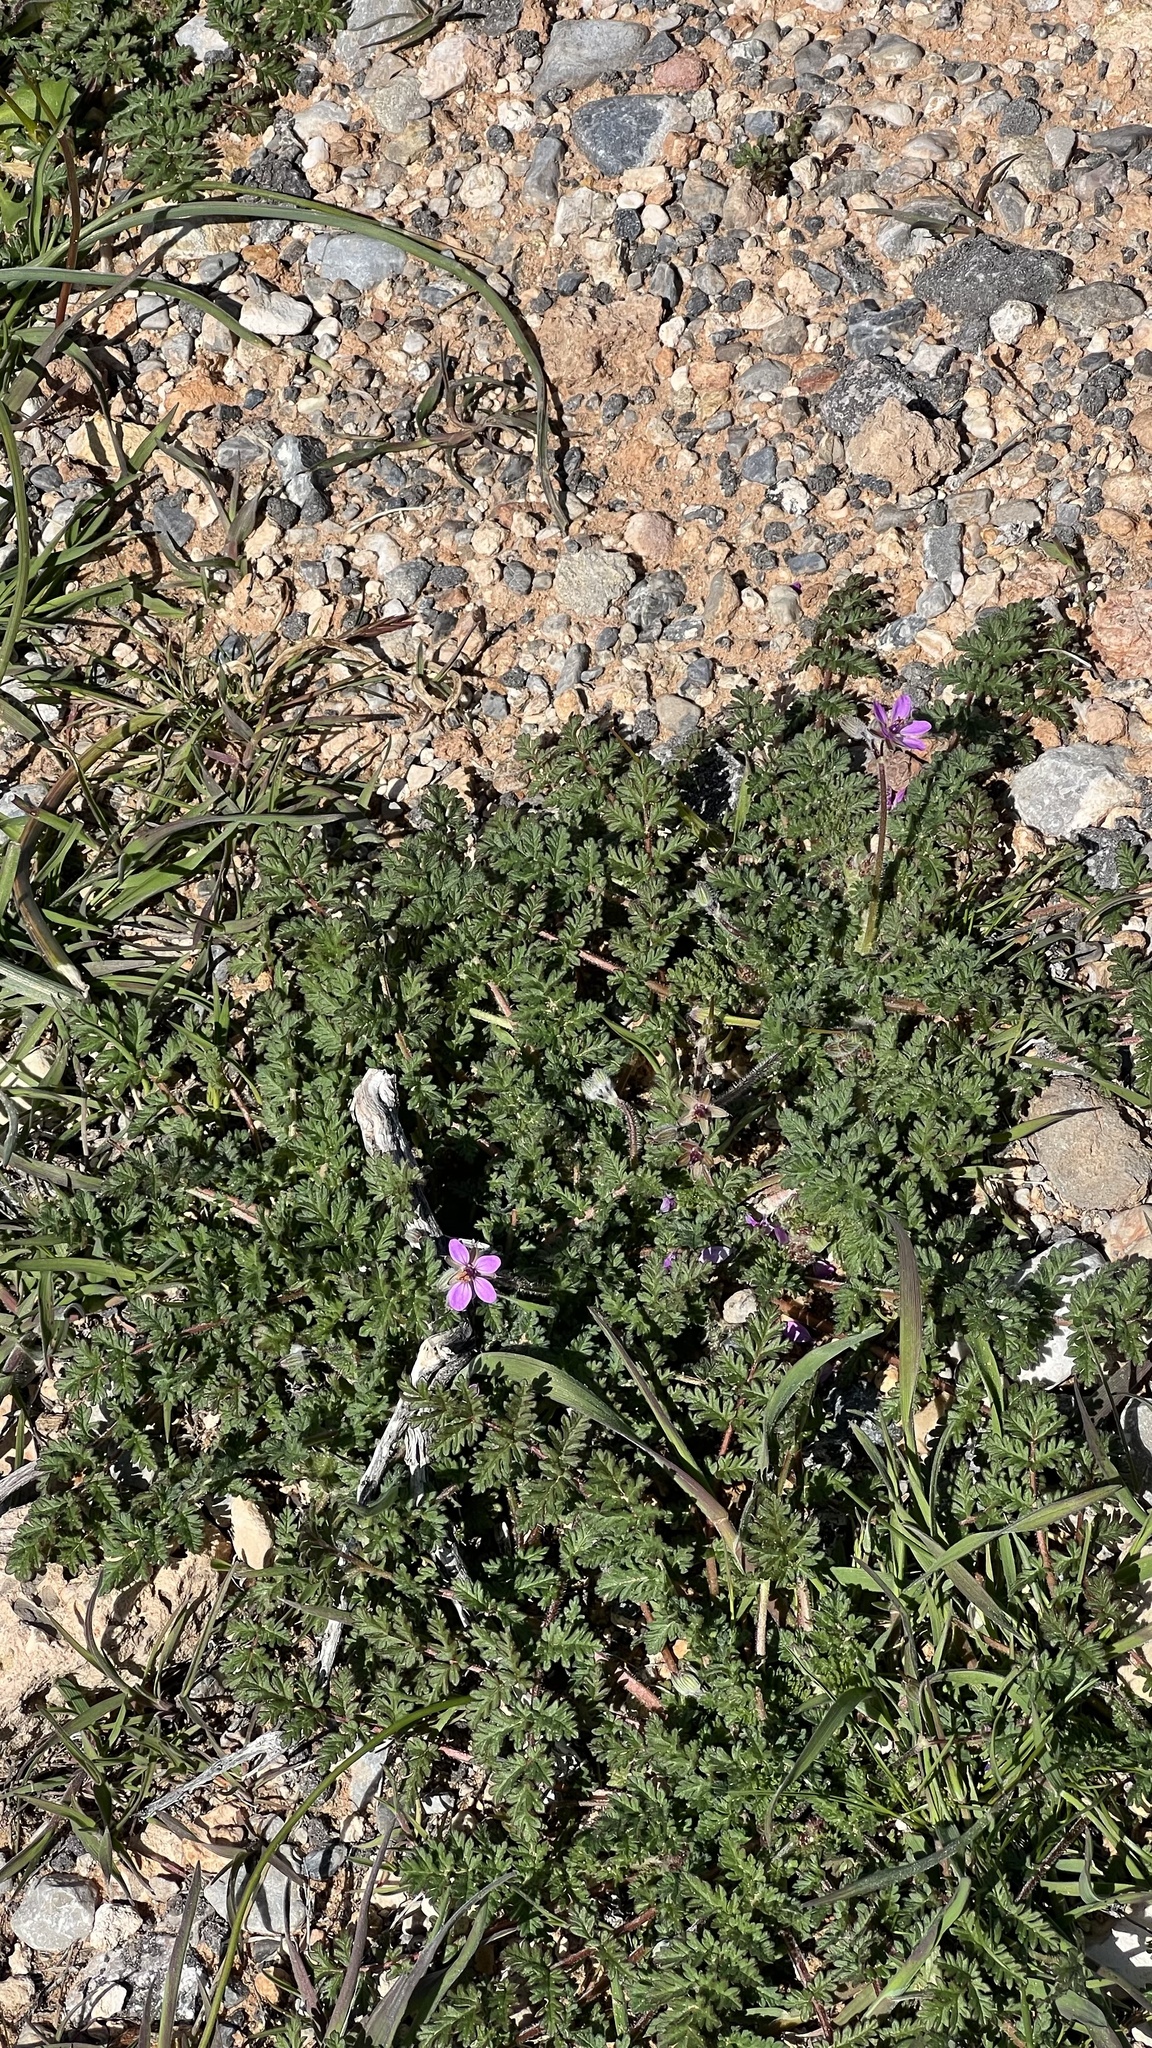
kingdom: Plantae
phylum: Tracheophyta
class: Magnoliopsida
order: Geraniales
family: Geraniaceae
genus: Erodium
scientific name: Erodium cicutarium
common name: Common stork's-bill
